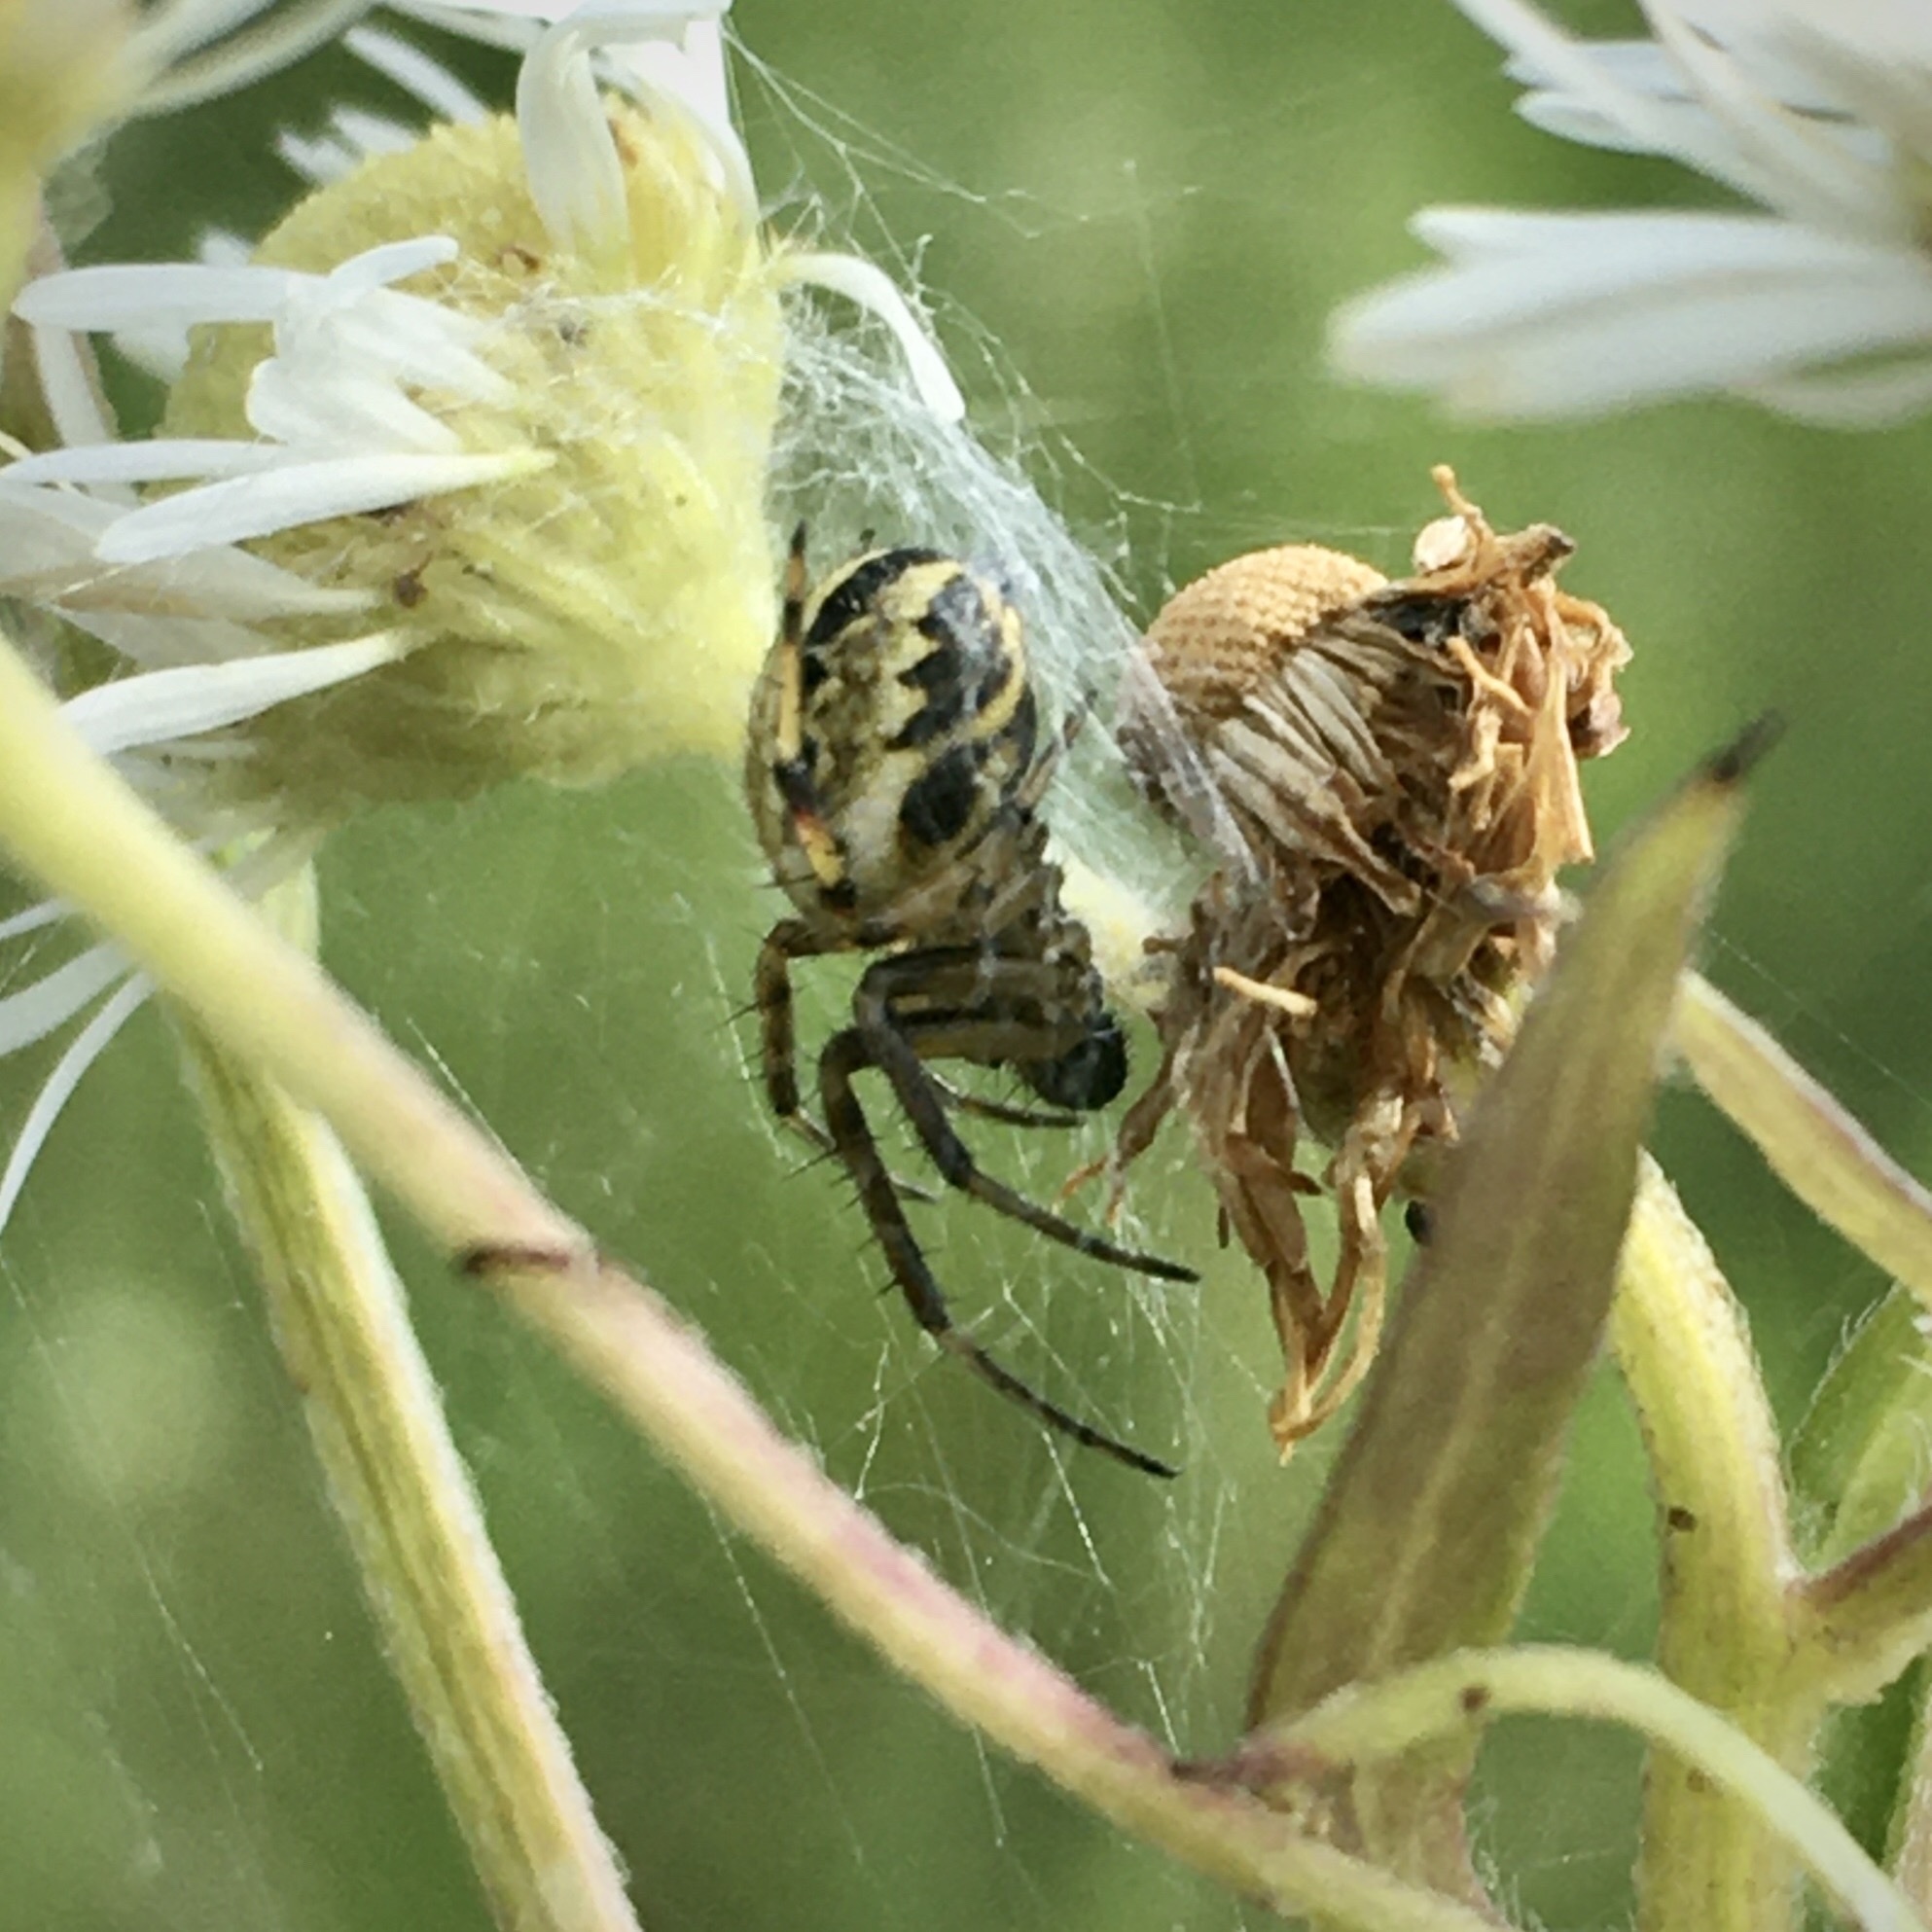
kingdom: Animalia
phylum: Arthropoda
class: Arachnida
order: Araneae
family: Araneidae
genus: Neoscona
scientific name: Neoscona adianta
